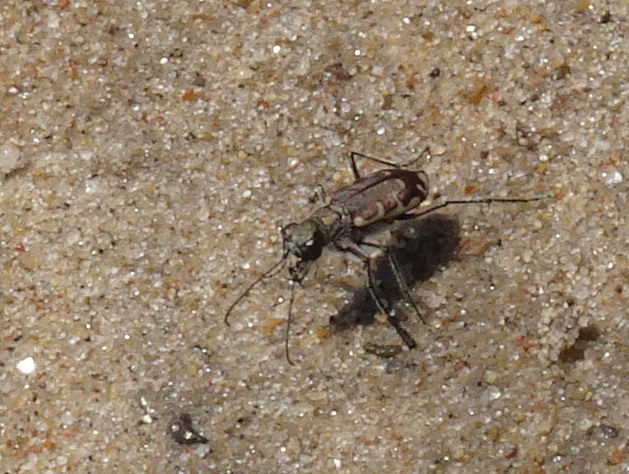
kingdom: Animalia
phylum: Arthropoda
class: Insecta
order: Coleoptera
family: Carabidae
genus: Cicindela
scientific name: Cicindela repanda
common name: Bronzed tiger beetle
